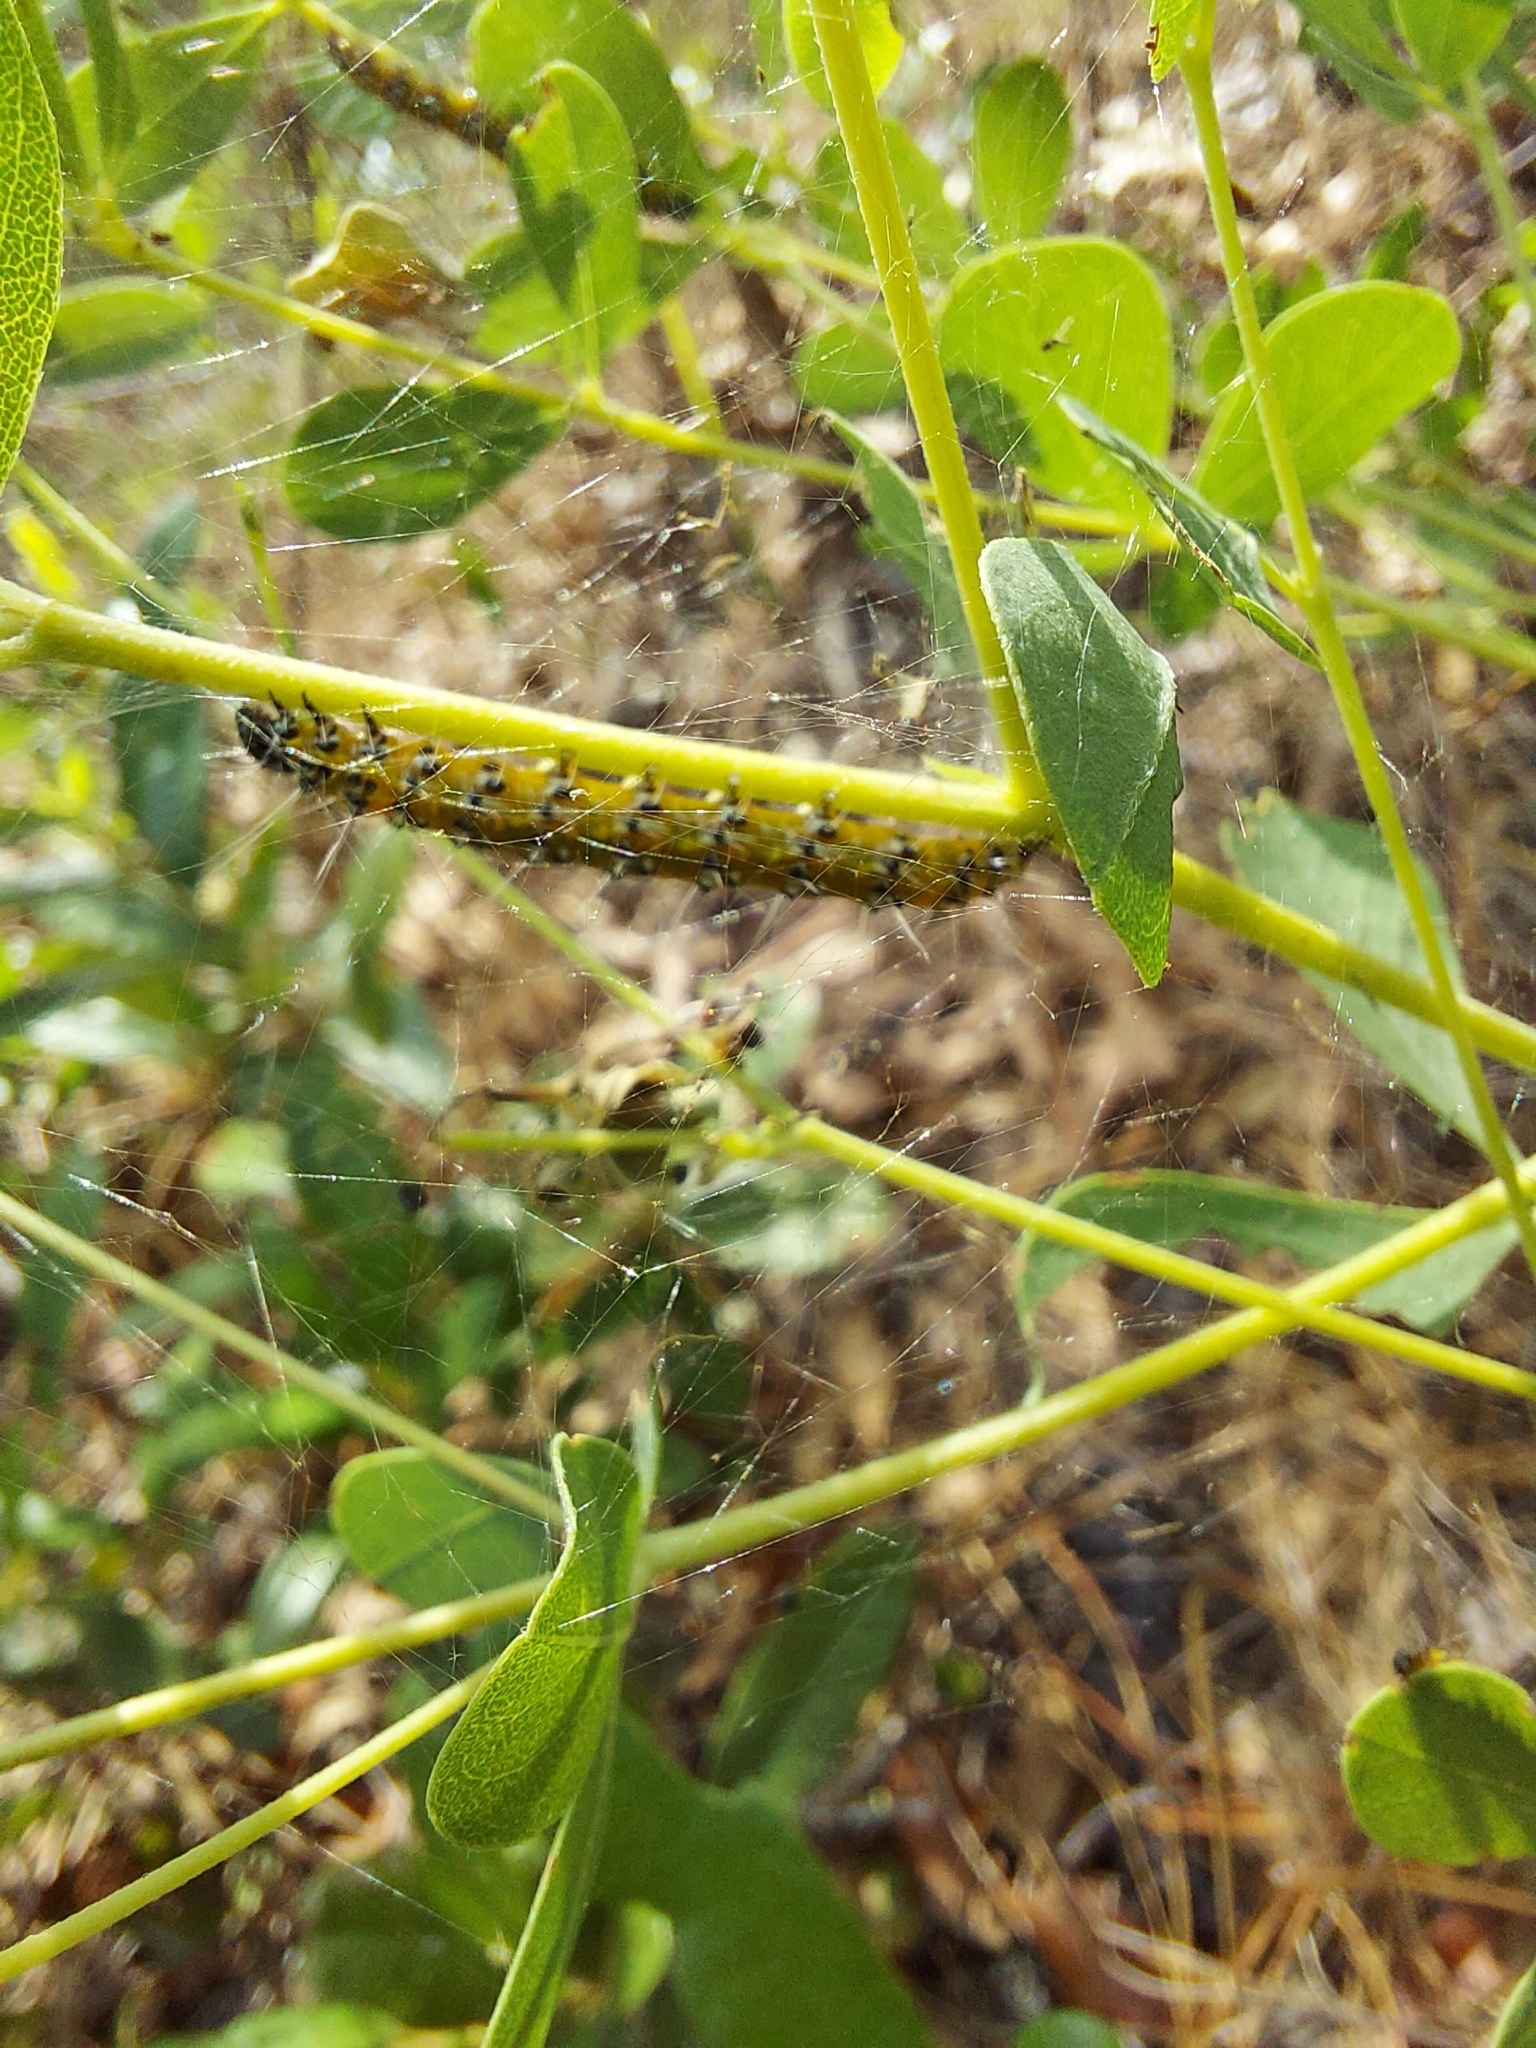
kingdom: Animalia
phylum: Arthropoda
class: Insecta
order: Lepidoptera
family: Crambidae
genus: Uresiphita
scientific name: Uresiphita reversalis
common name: Genista broom moth
